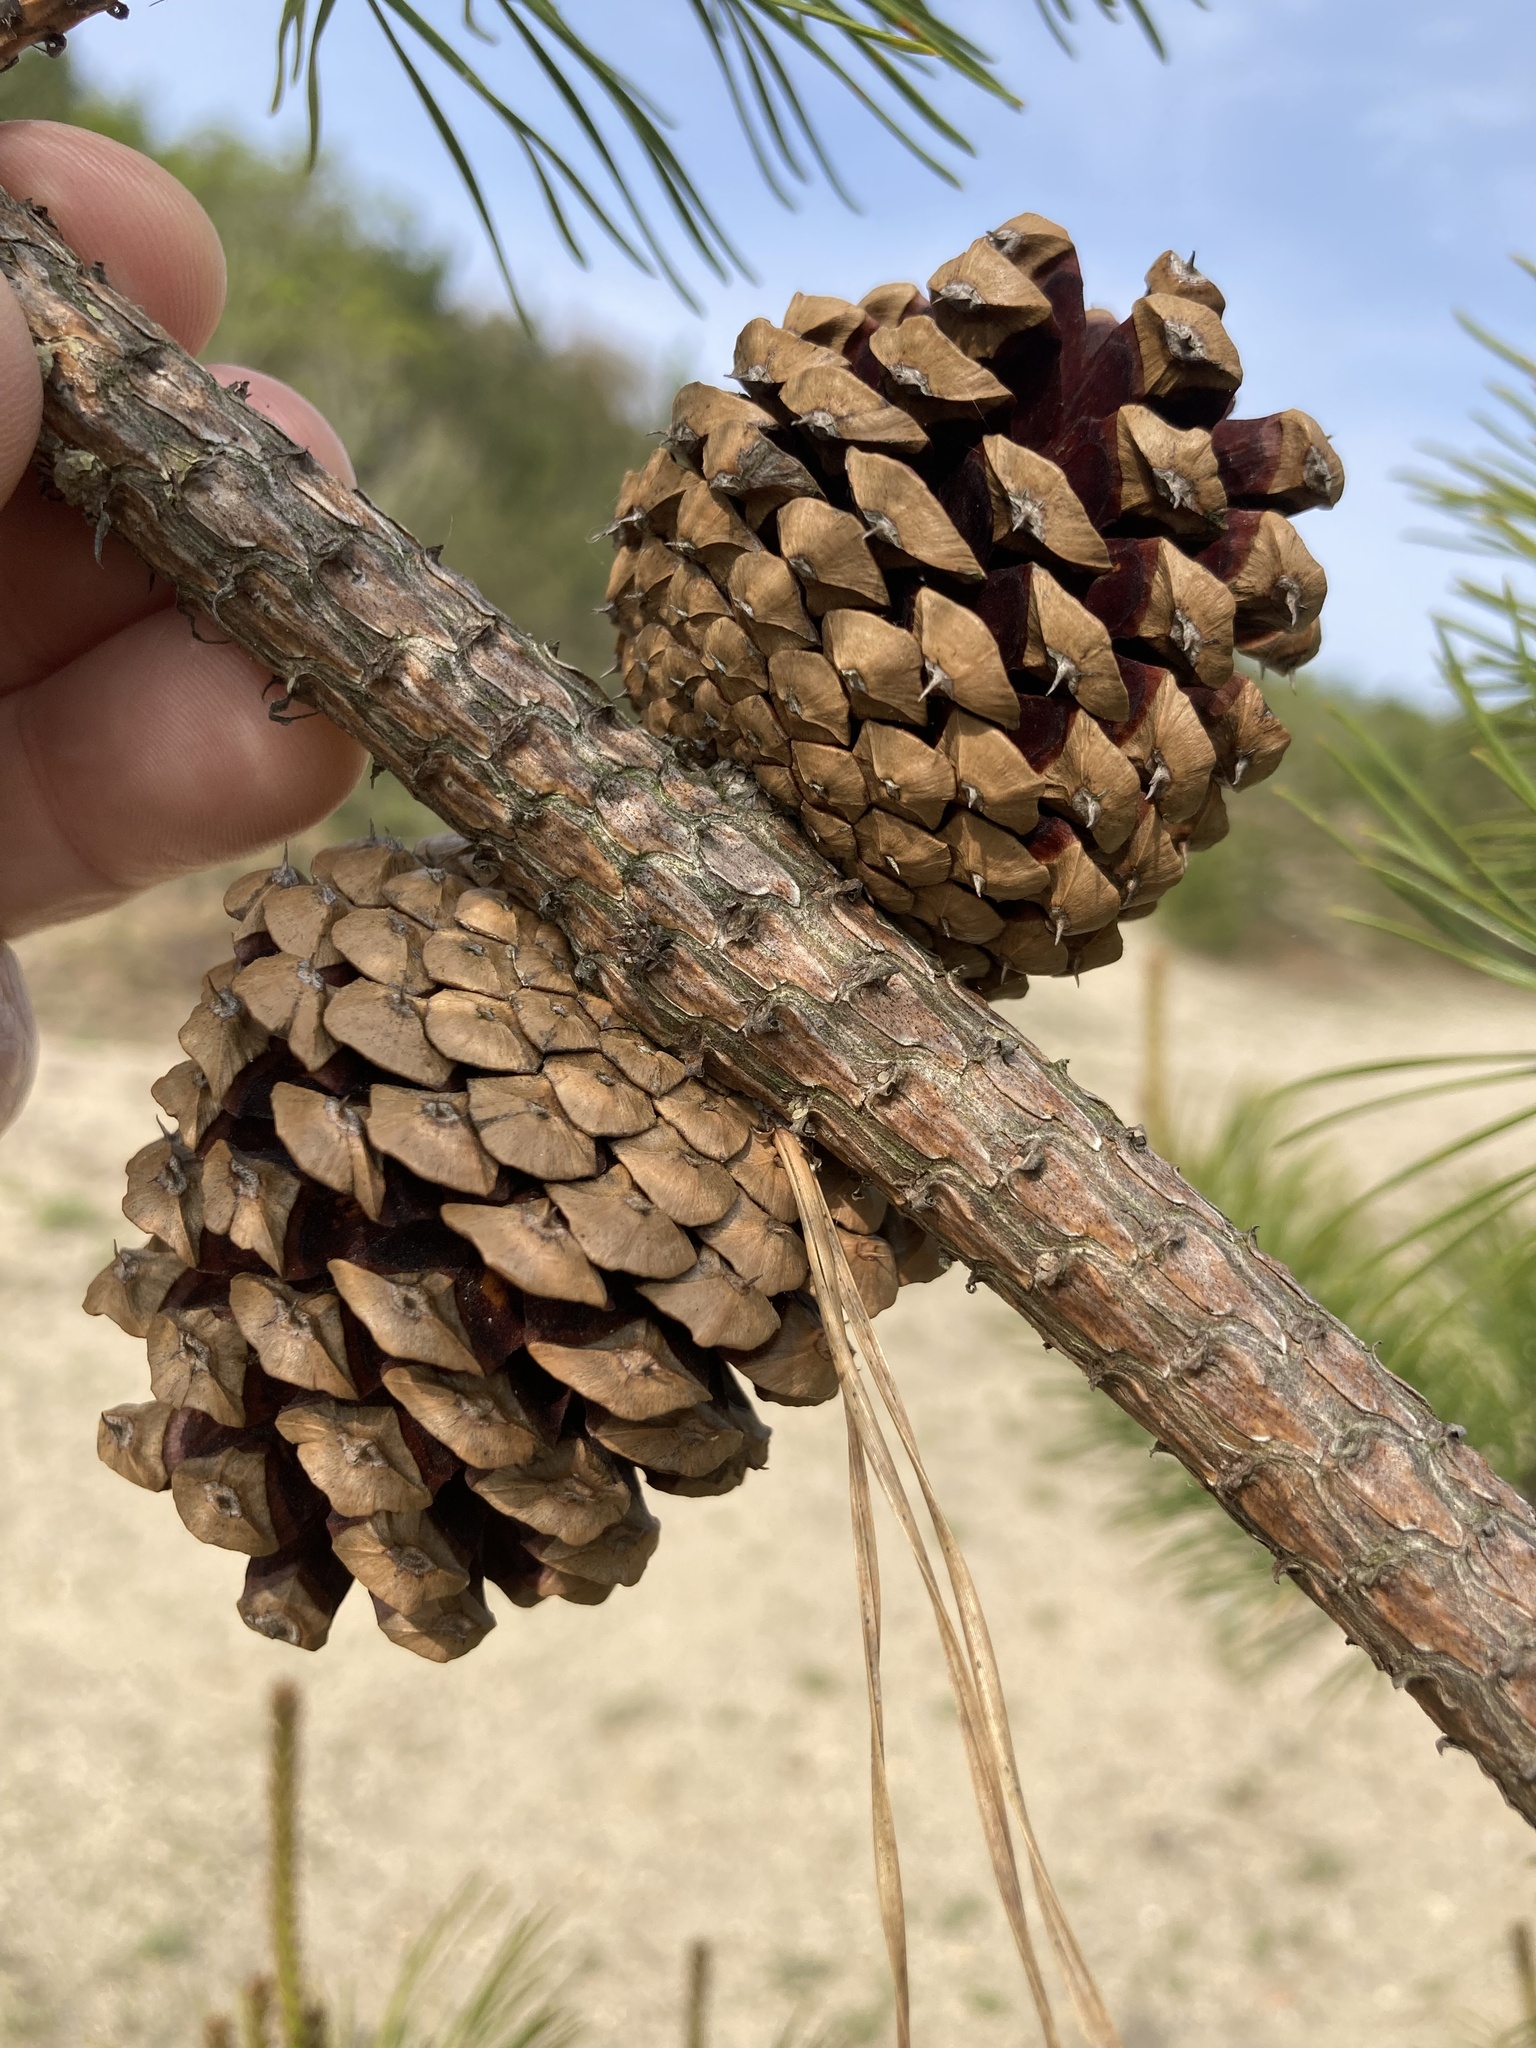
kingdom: Plantae
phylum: Tracheophyta
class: Pinopsida
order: Pinales
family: Pinaceae
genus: Pinus
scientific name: Pinus rigida
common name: Pitch pine
